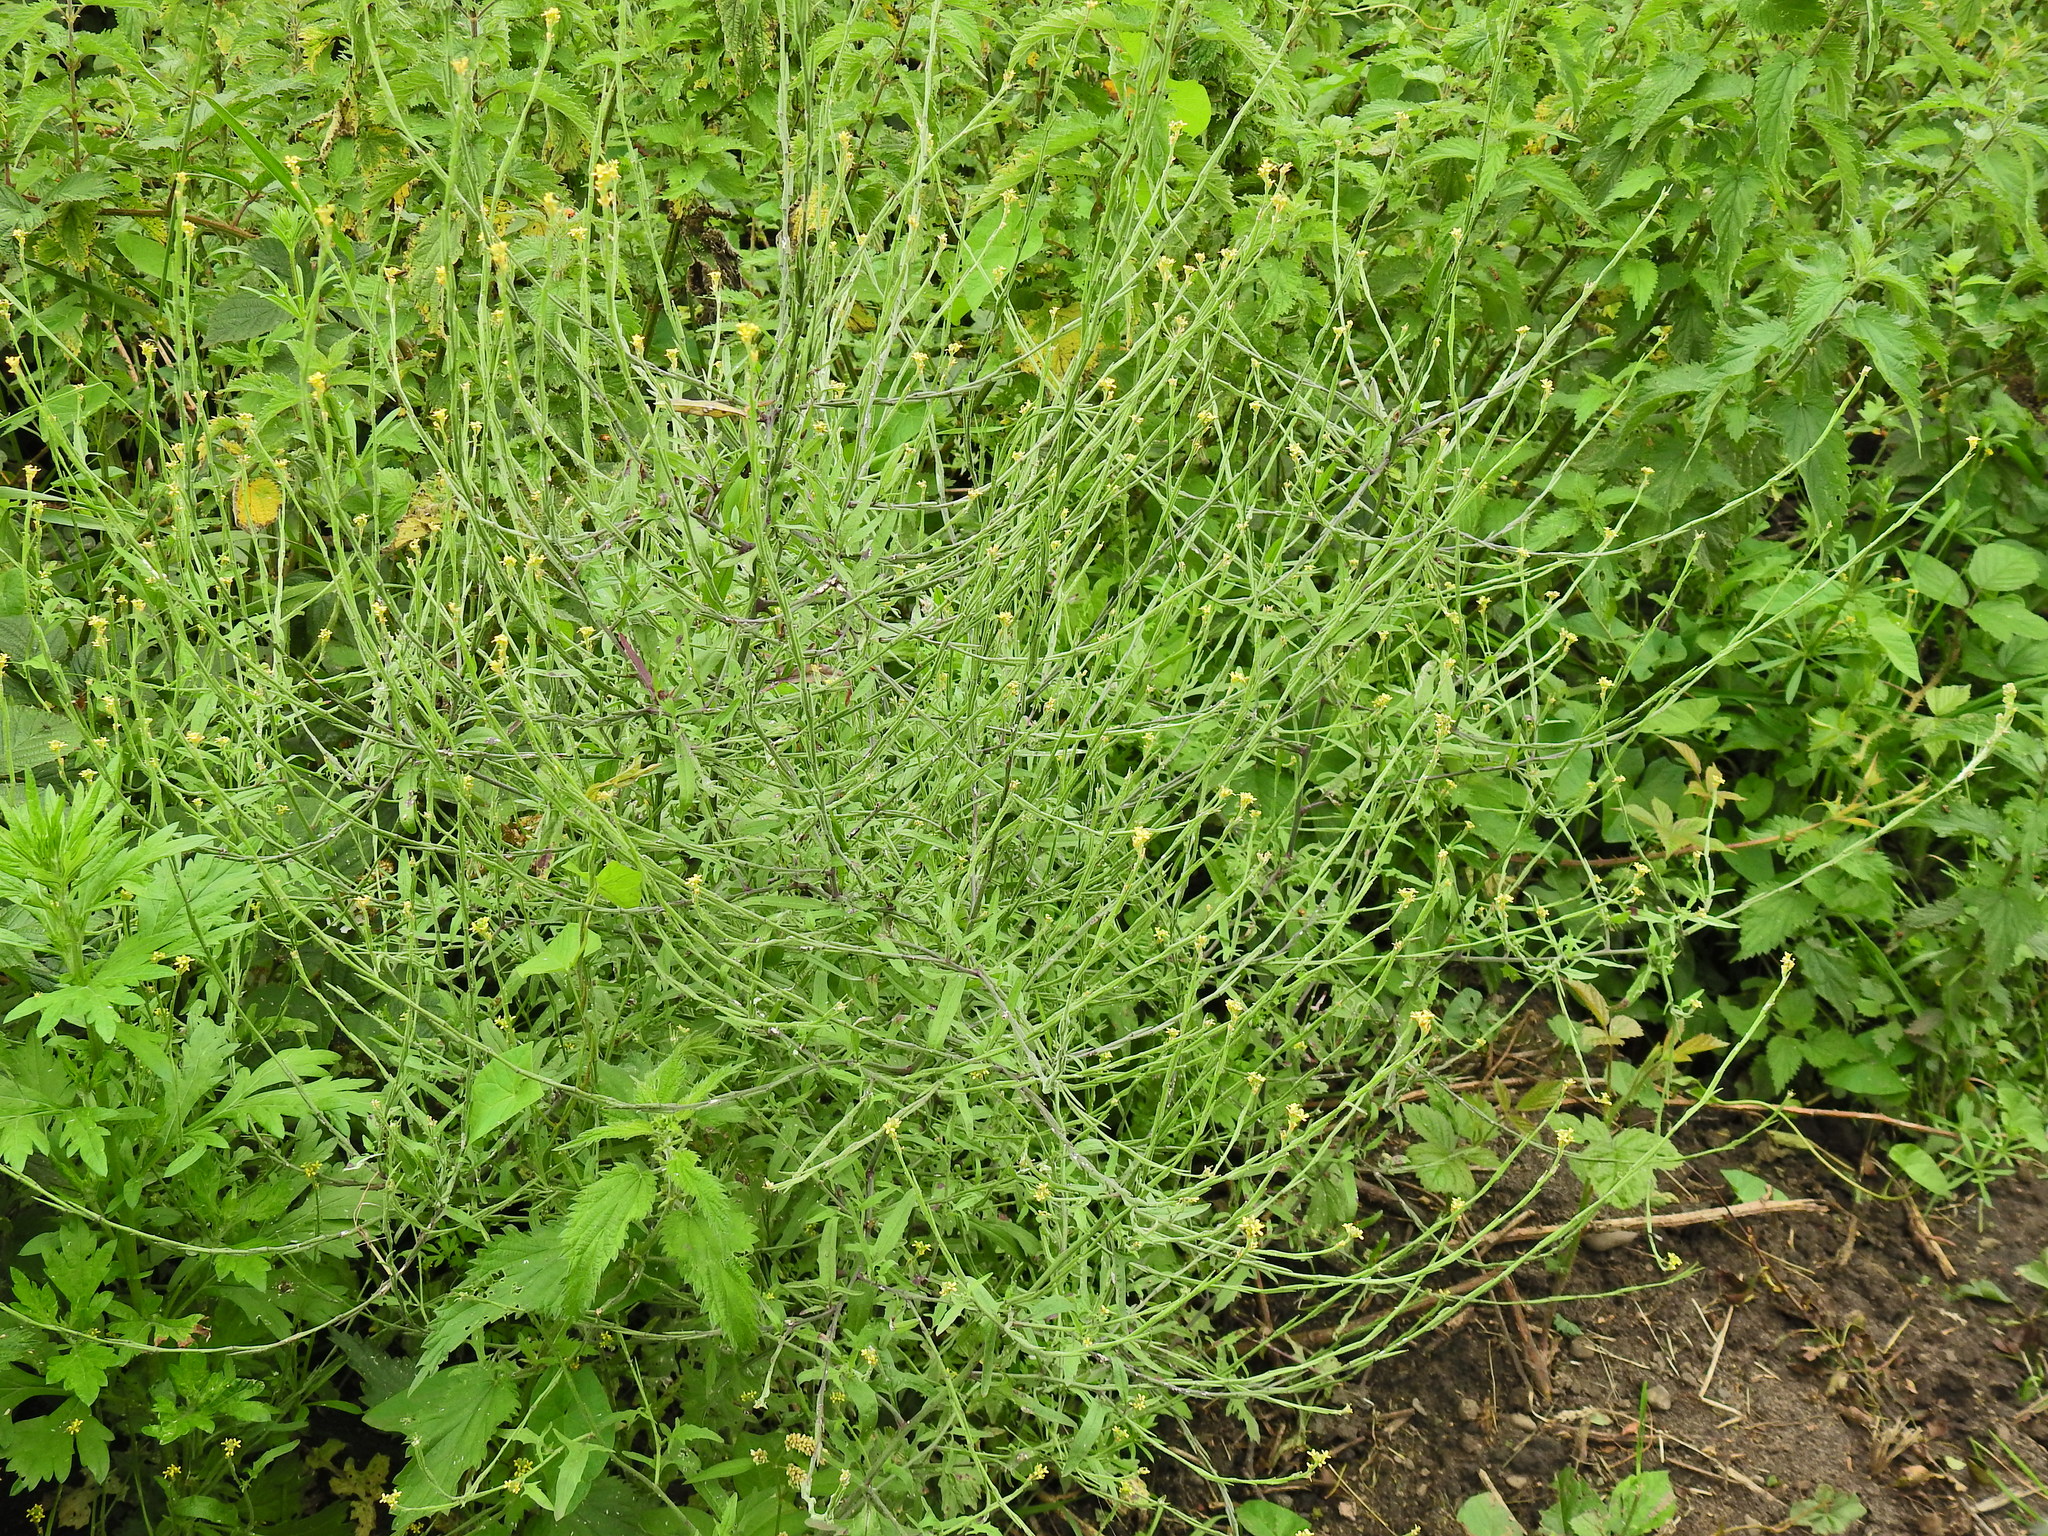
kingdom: Plantae
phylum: Tracheophyta
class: Magnoliopsida
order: Brassicales
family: Brassicaceae
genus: Sisymbrium
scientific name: Sisymbrium officinale
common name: Hedge mustard
